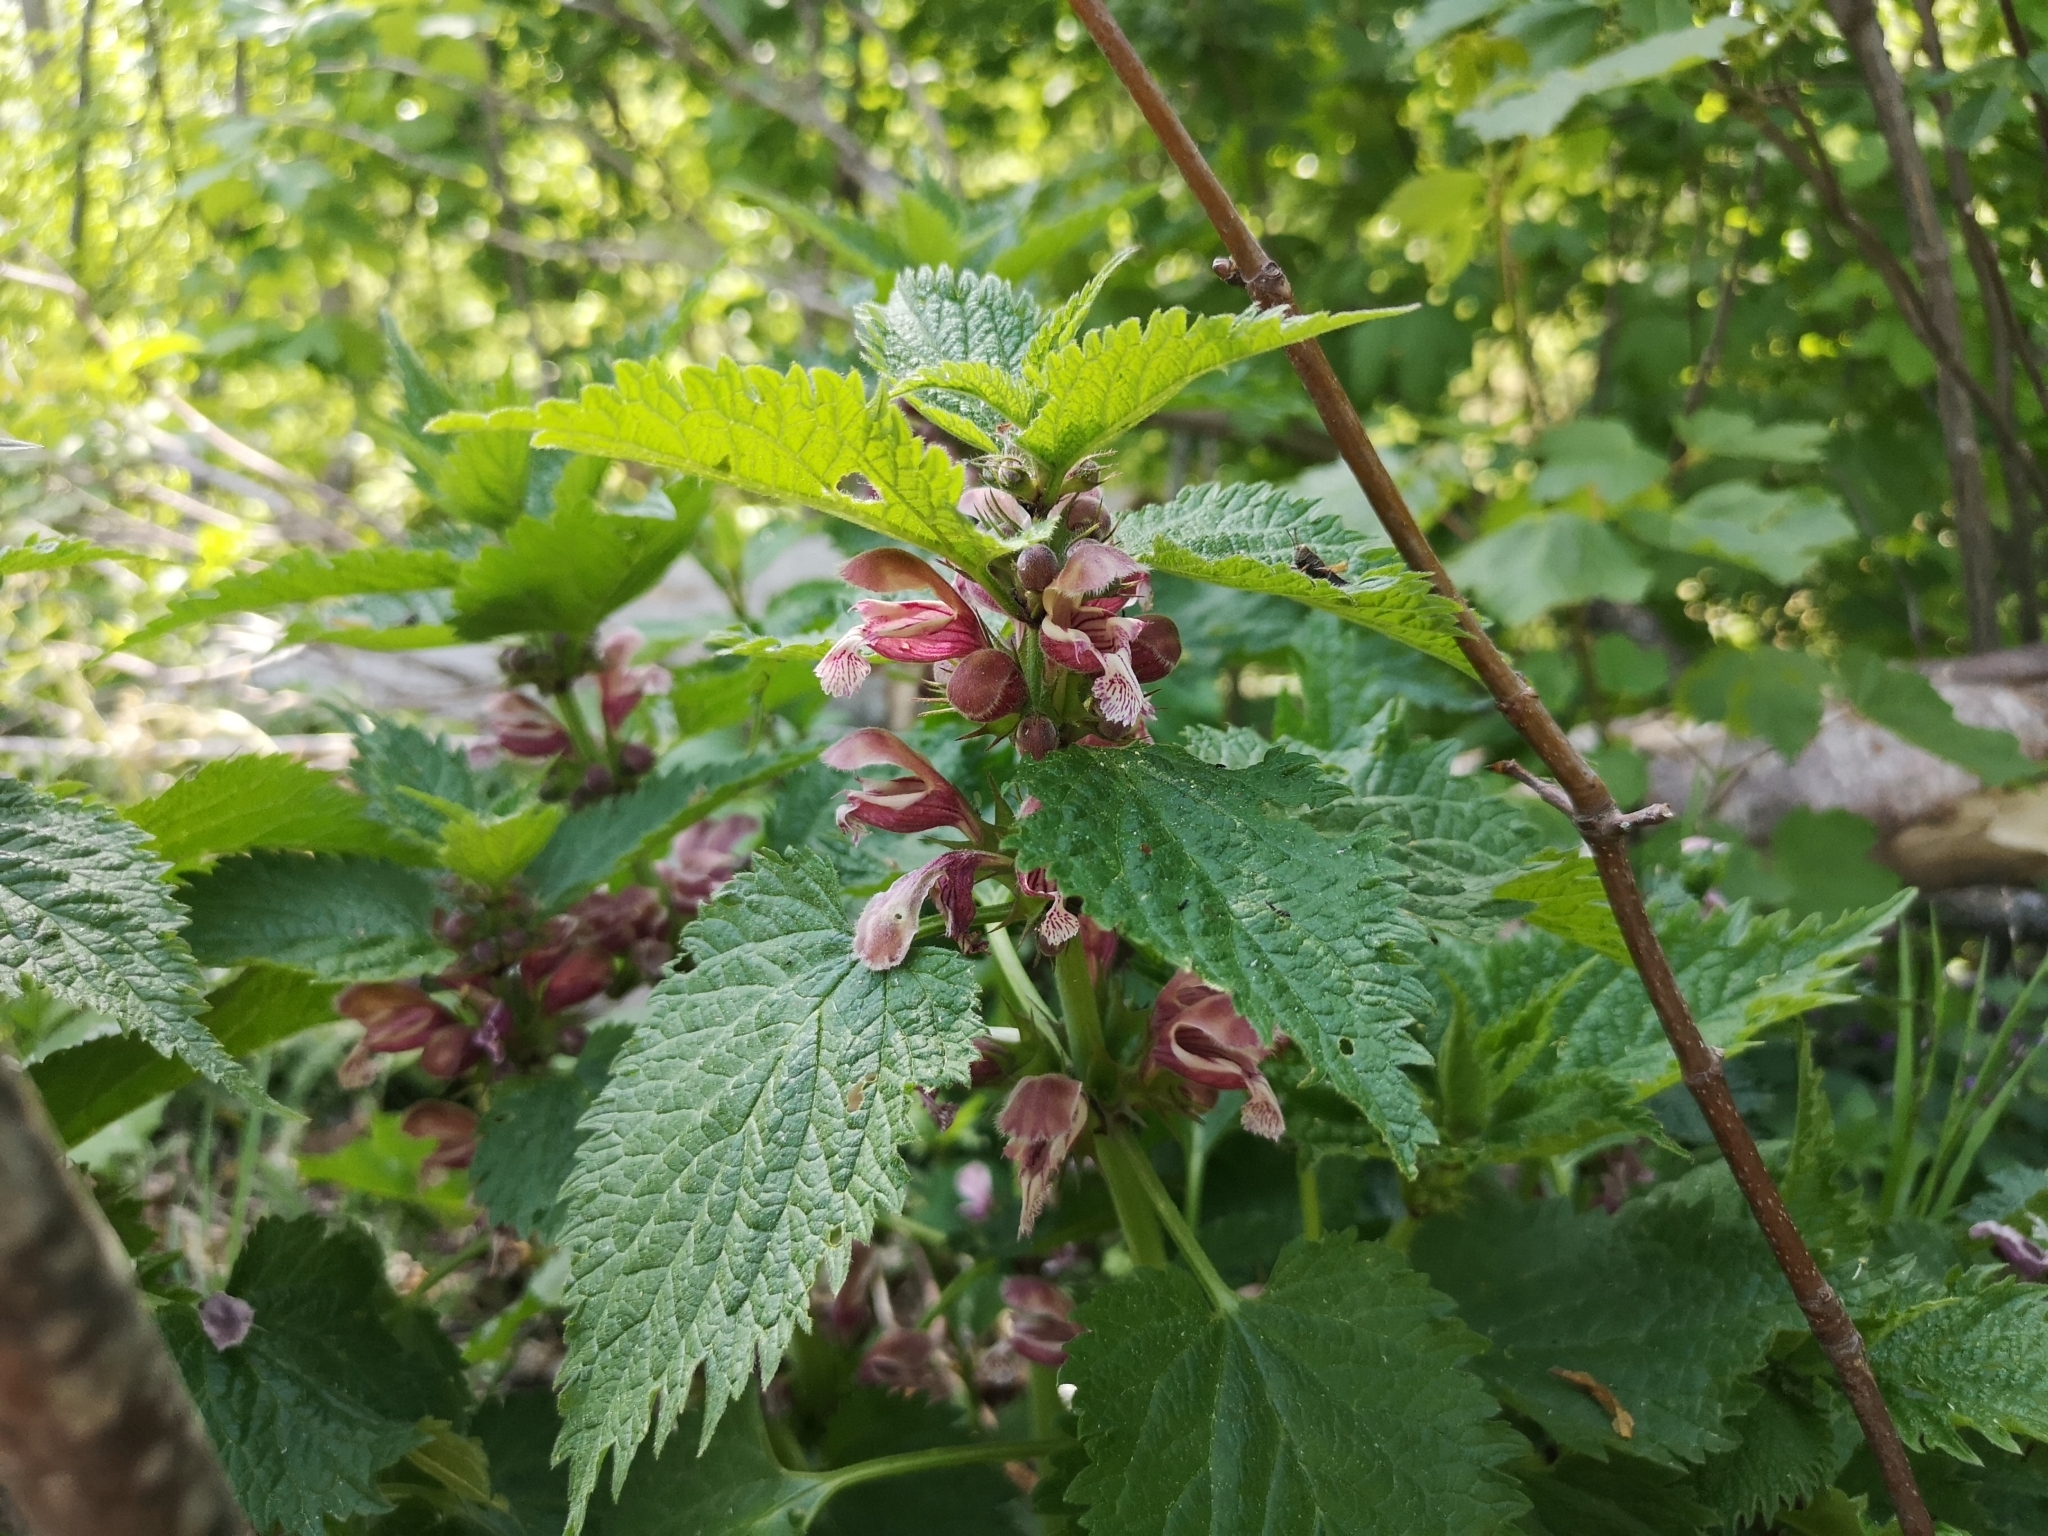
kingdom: Plantae
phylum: Tracheophyta
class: Magnoliopsida
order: Lamiales
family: Lamiaceae
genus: Lamium
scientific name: Lamium orvala
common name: Balm-leaved archangel
